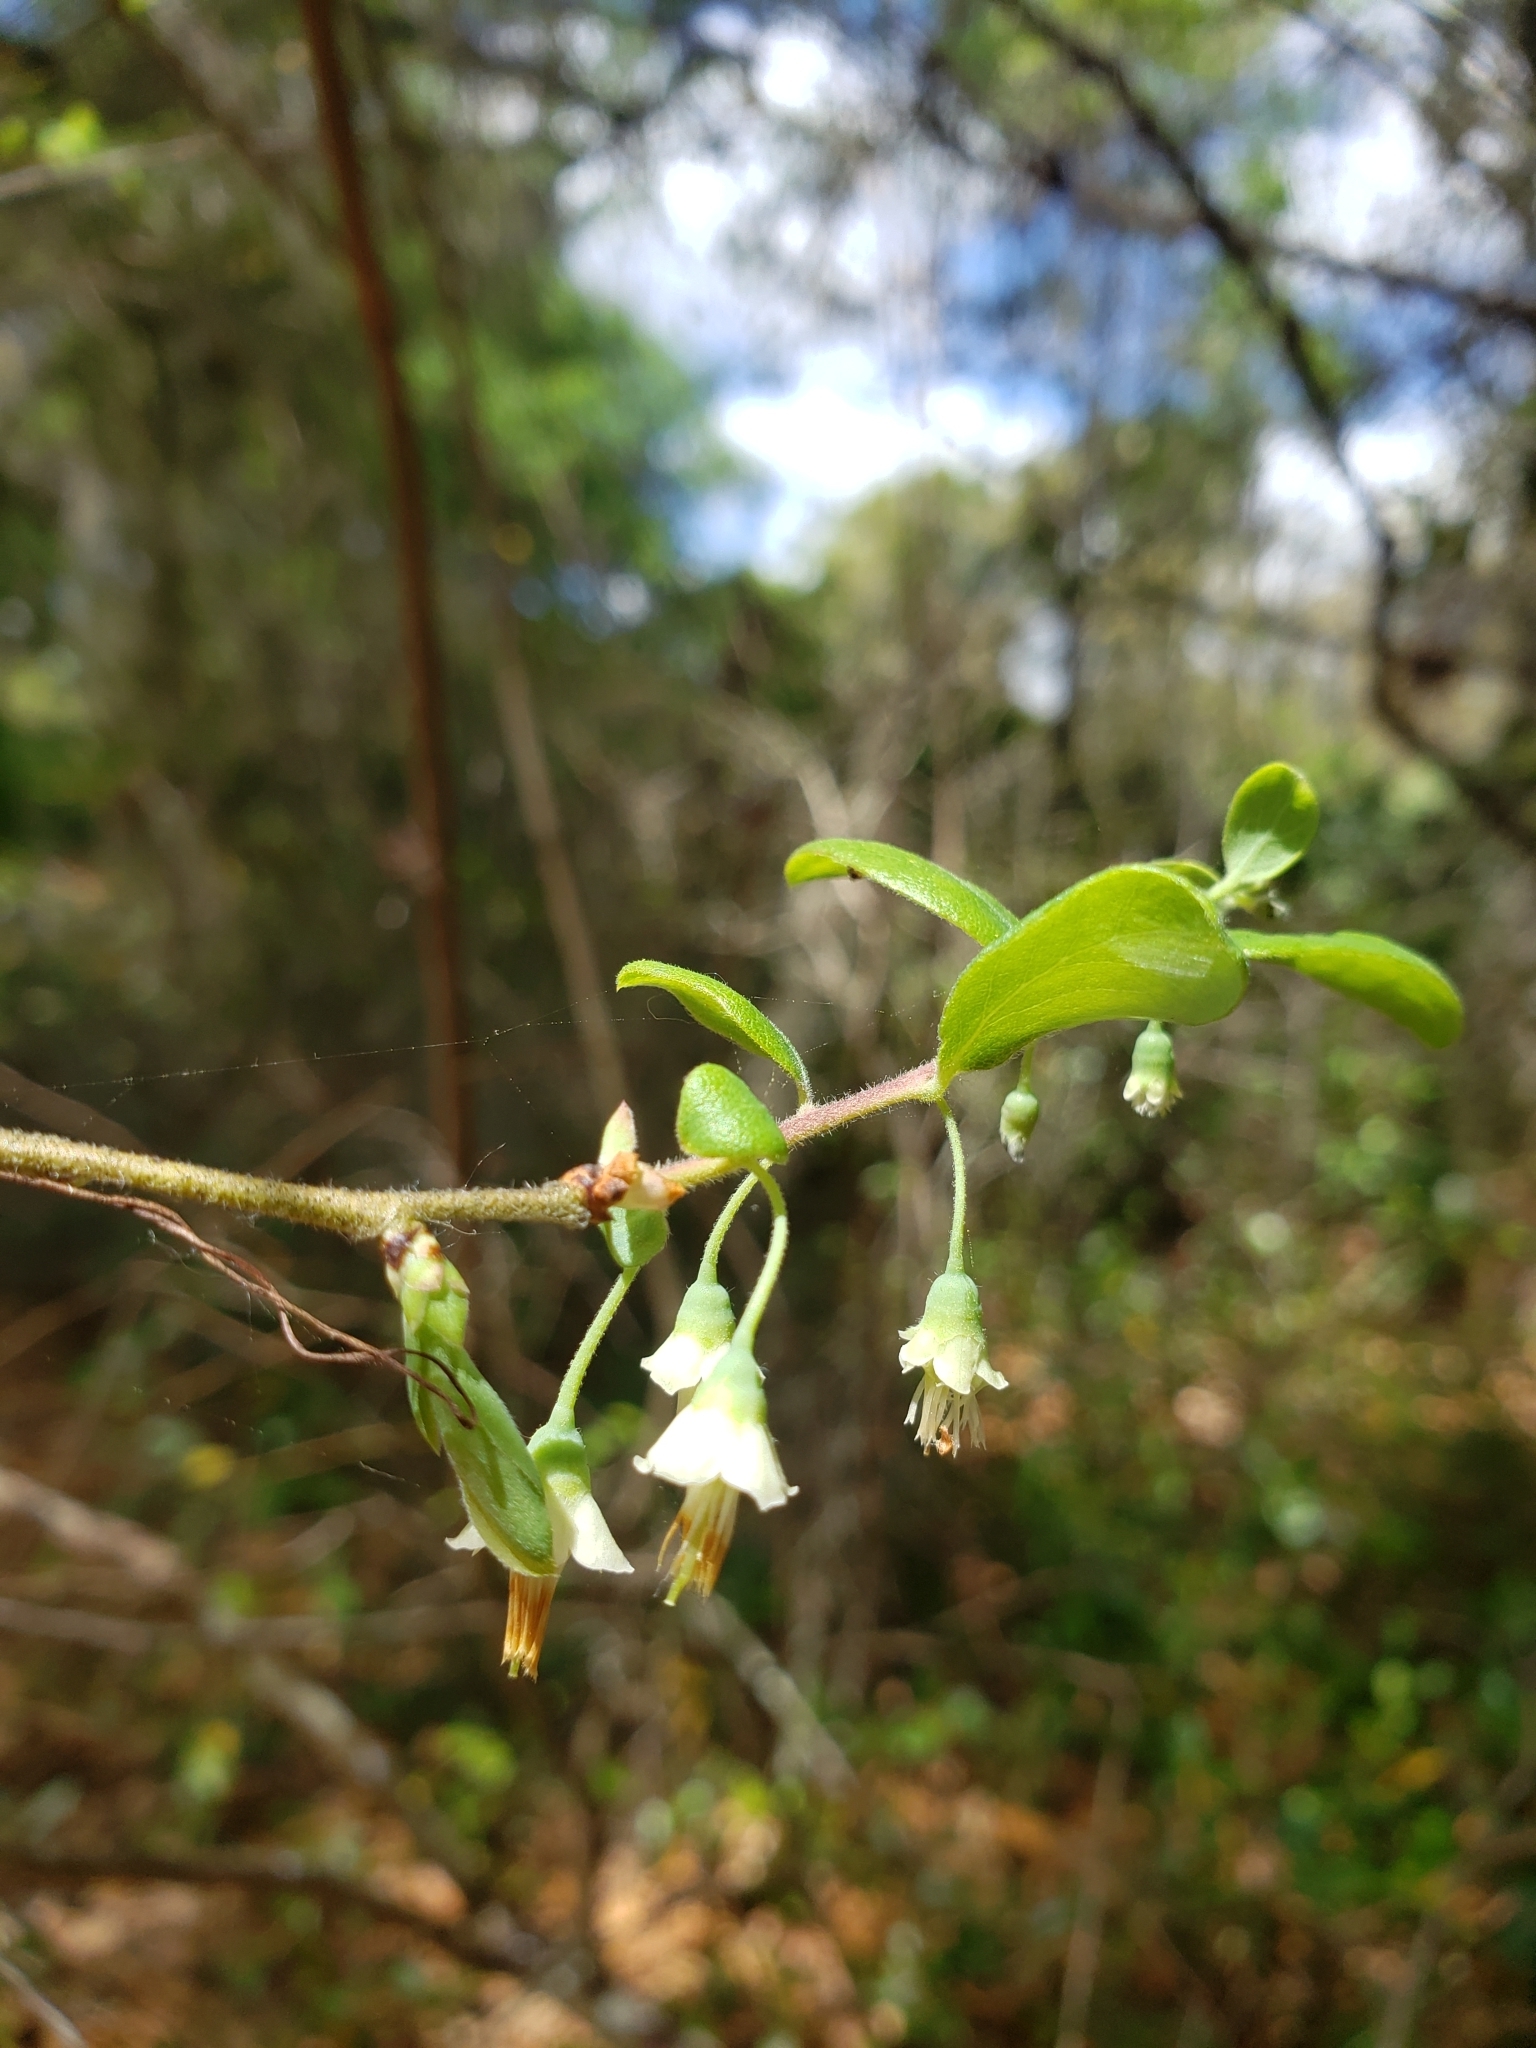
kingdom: Plantae
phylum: Tracheophyta
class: Magnoliopsida
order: Ericales
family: Ericaceae
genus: Vaccinium
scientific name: Vaccinium stamineum
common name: Deerberry
